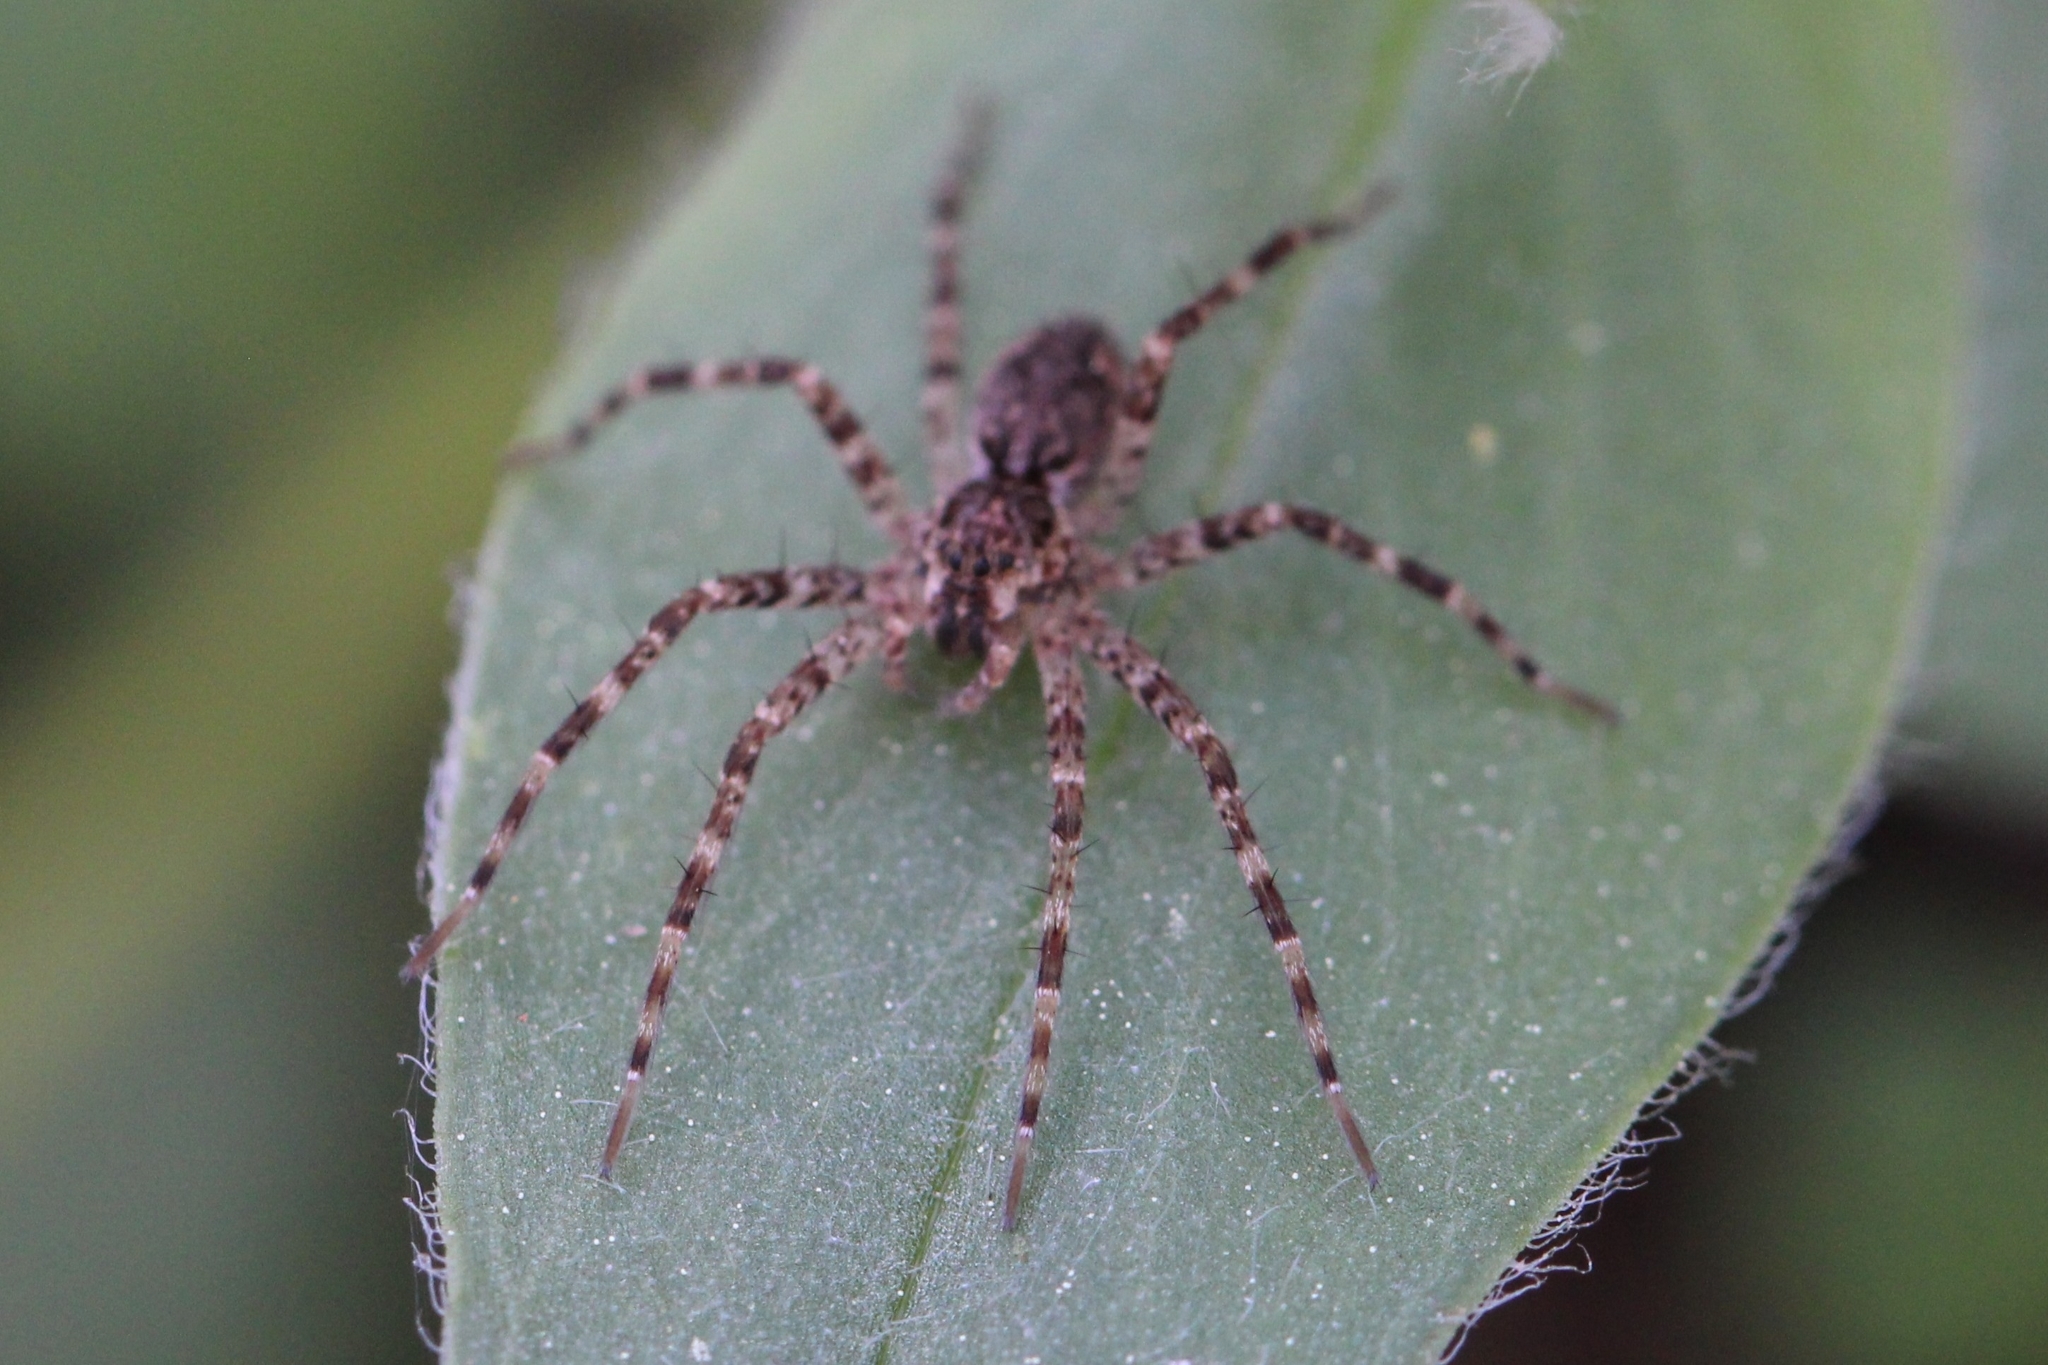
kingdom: Animalia
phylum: Arthropoda
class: Arachnida
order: Araneae
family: Pisauridae
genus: Dolomedes
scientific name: Dolomedes tenebrosus
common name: Dark fishing spider
